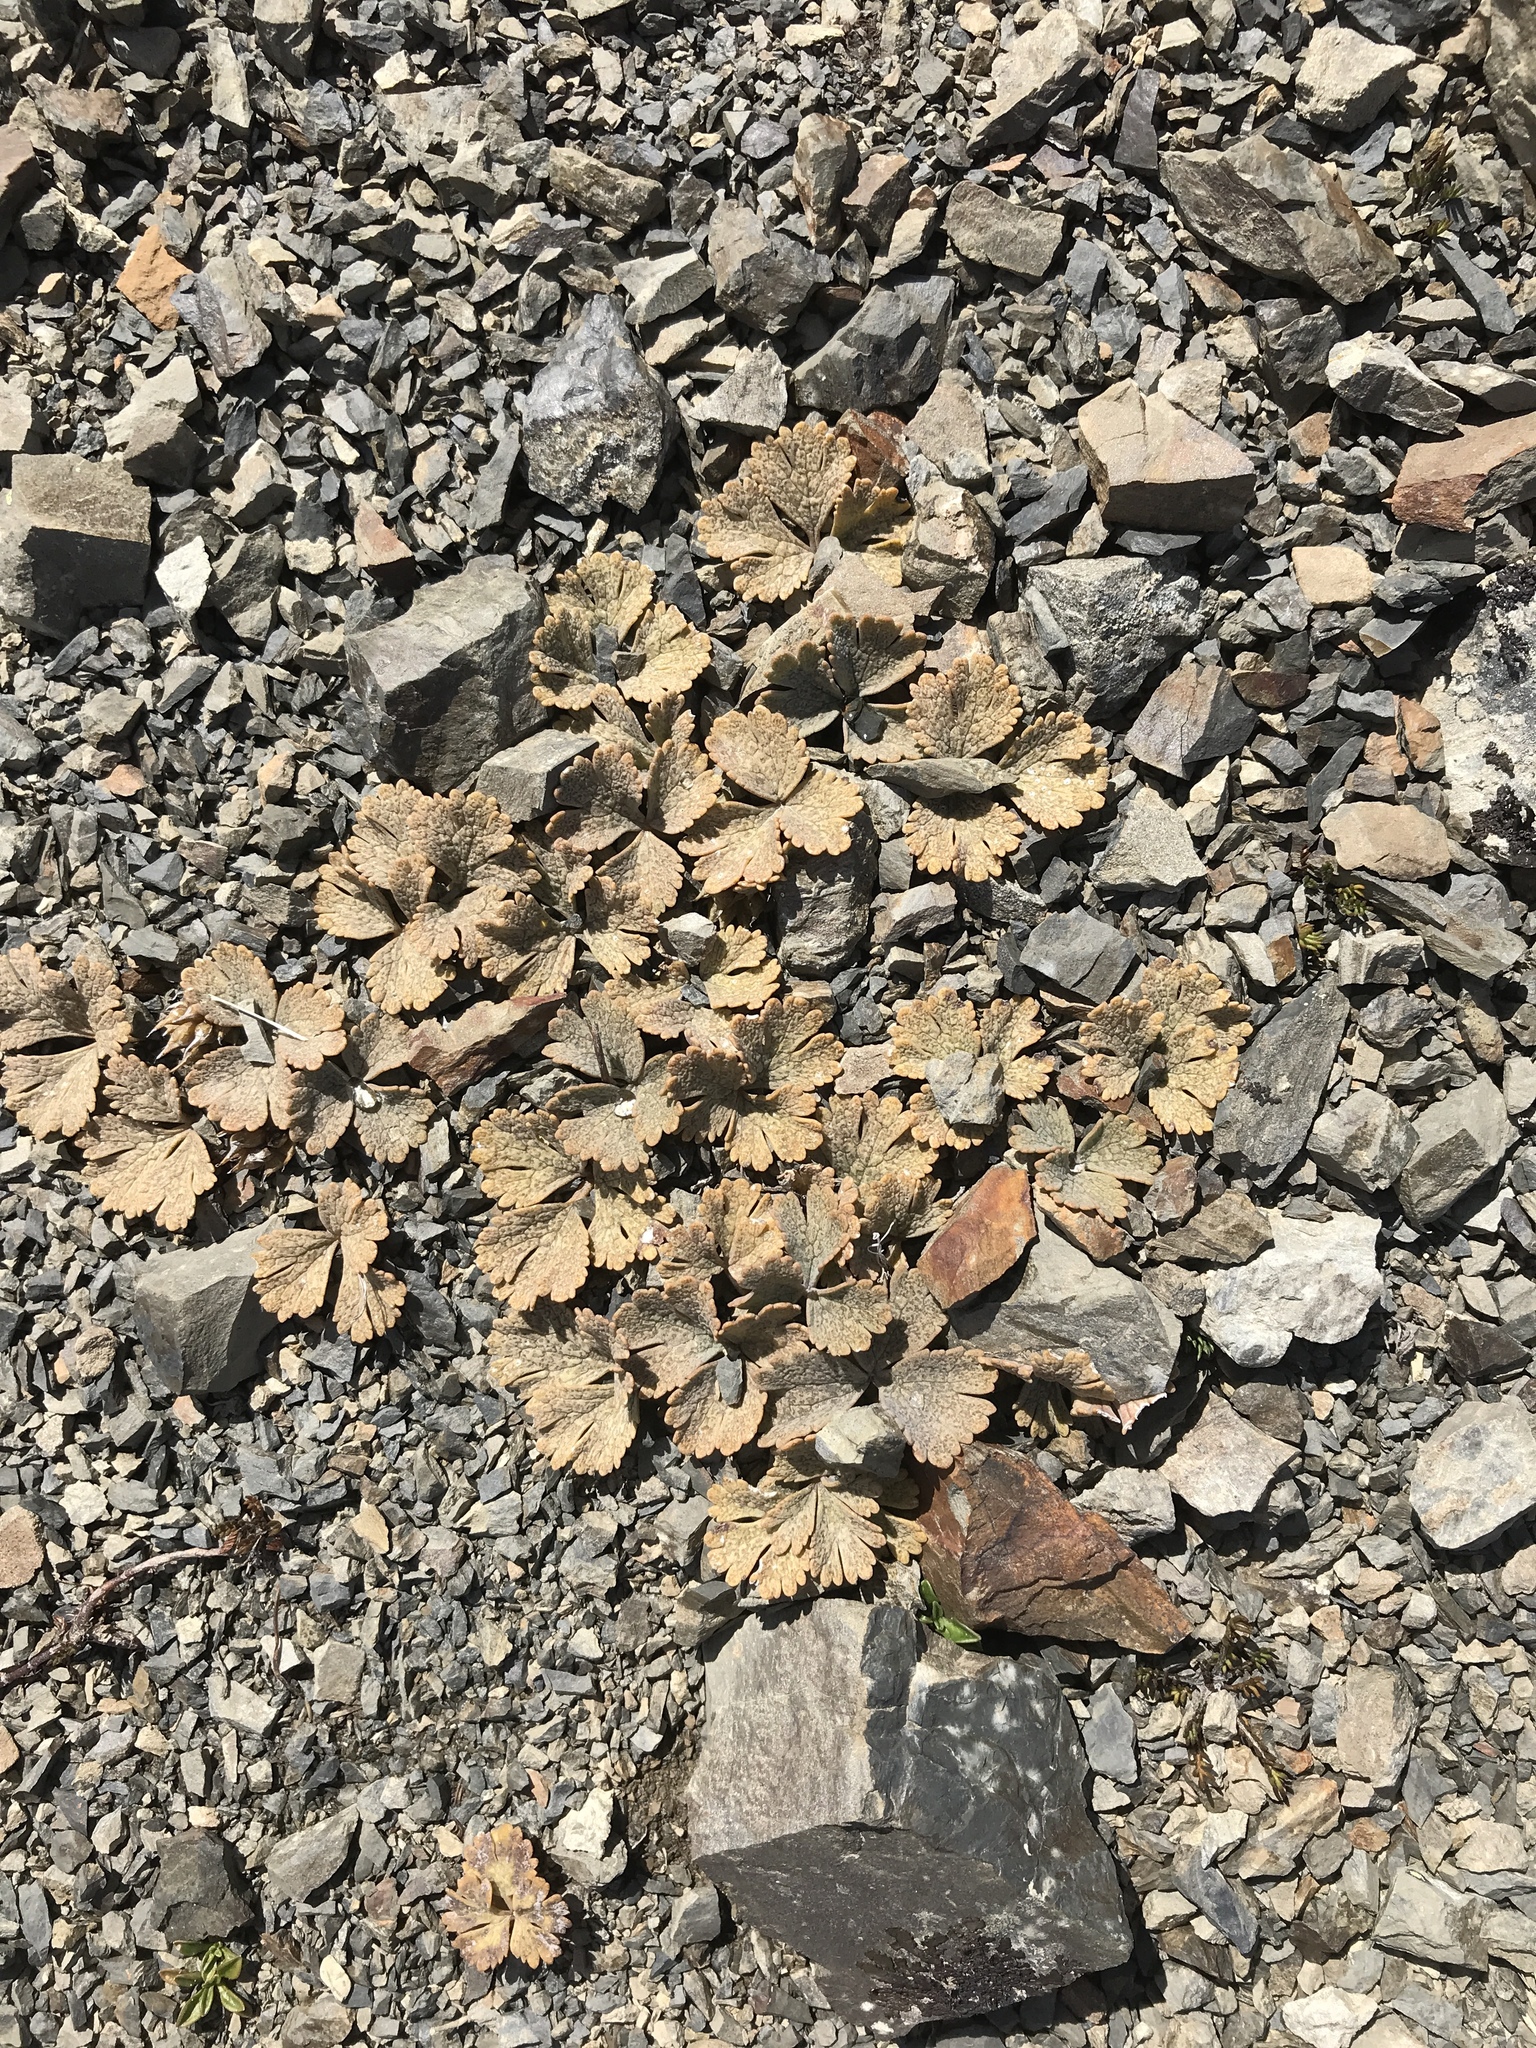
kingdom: Plantae
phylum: Tracheophyta
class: Magnoliopsida
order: Ranunculales
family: Ranunculaceae
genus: Ranunculus
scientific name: Ranunculus crithmifolius
